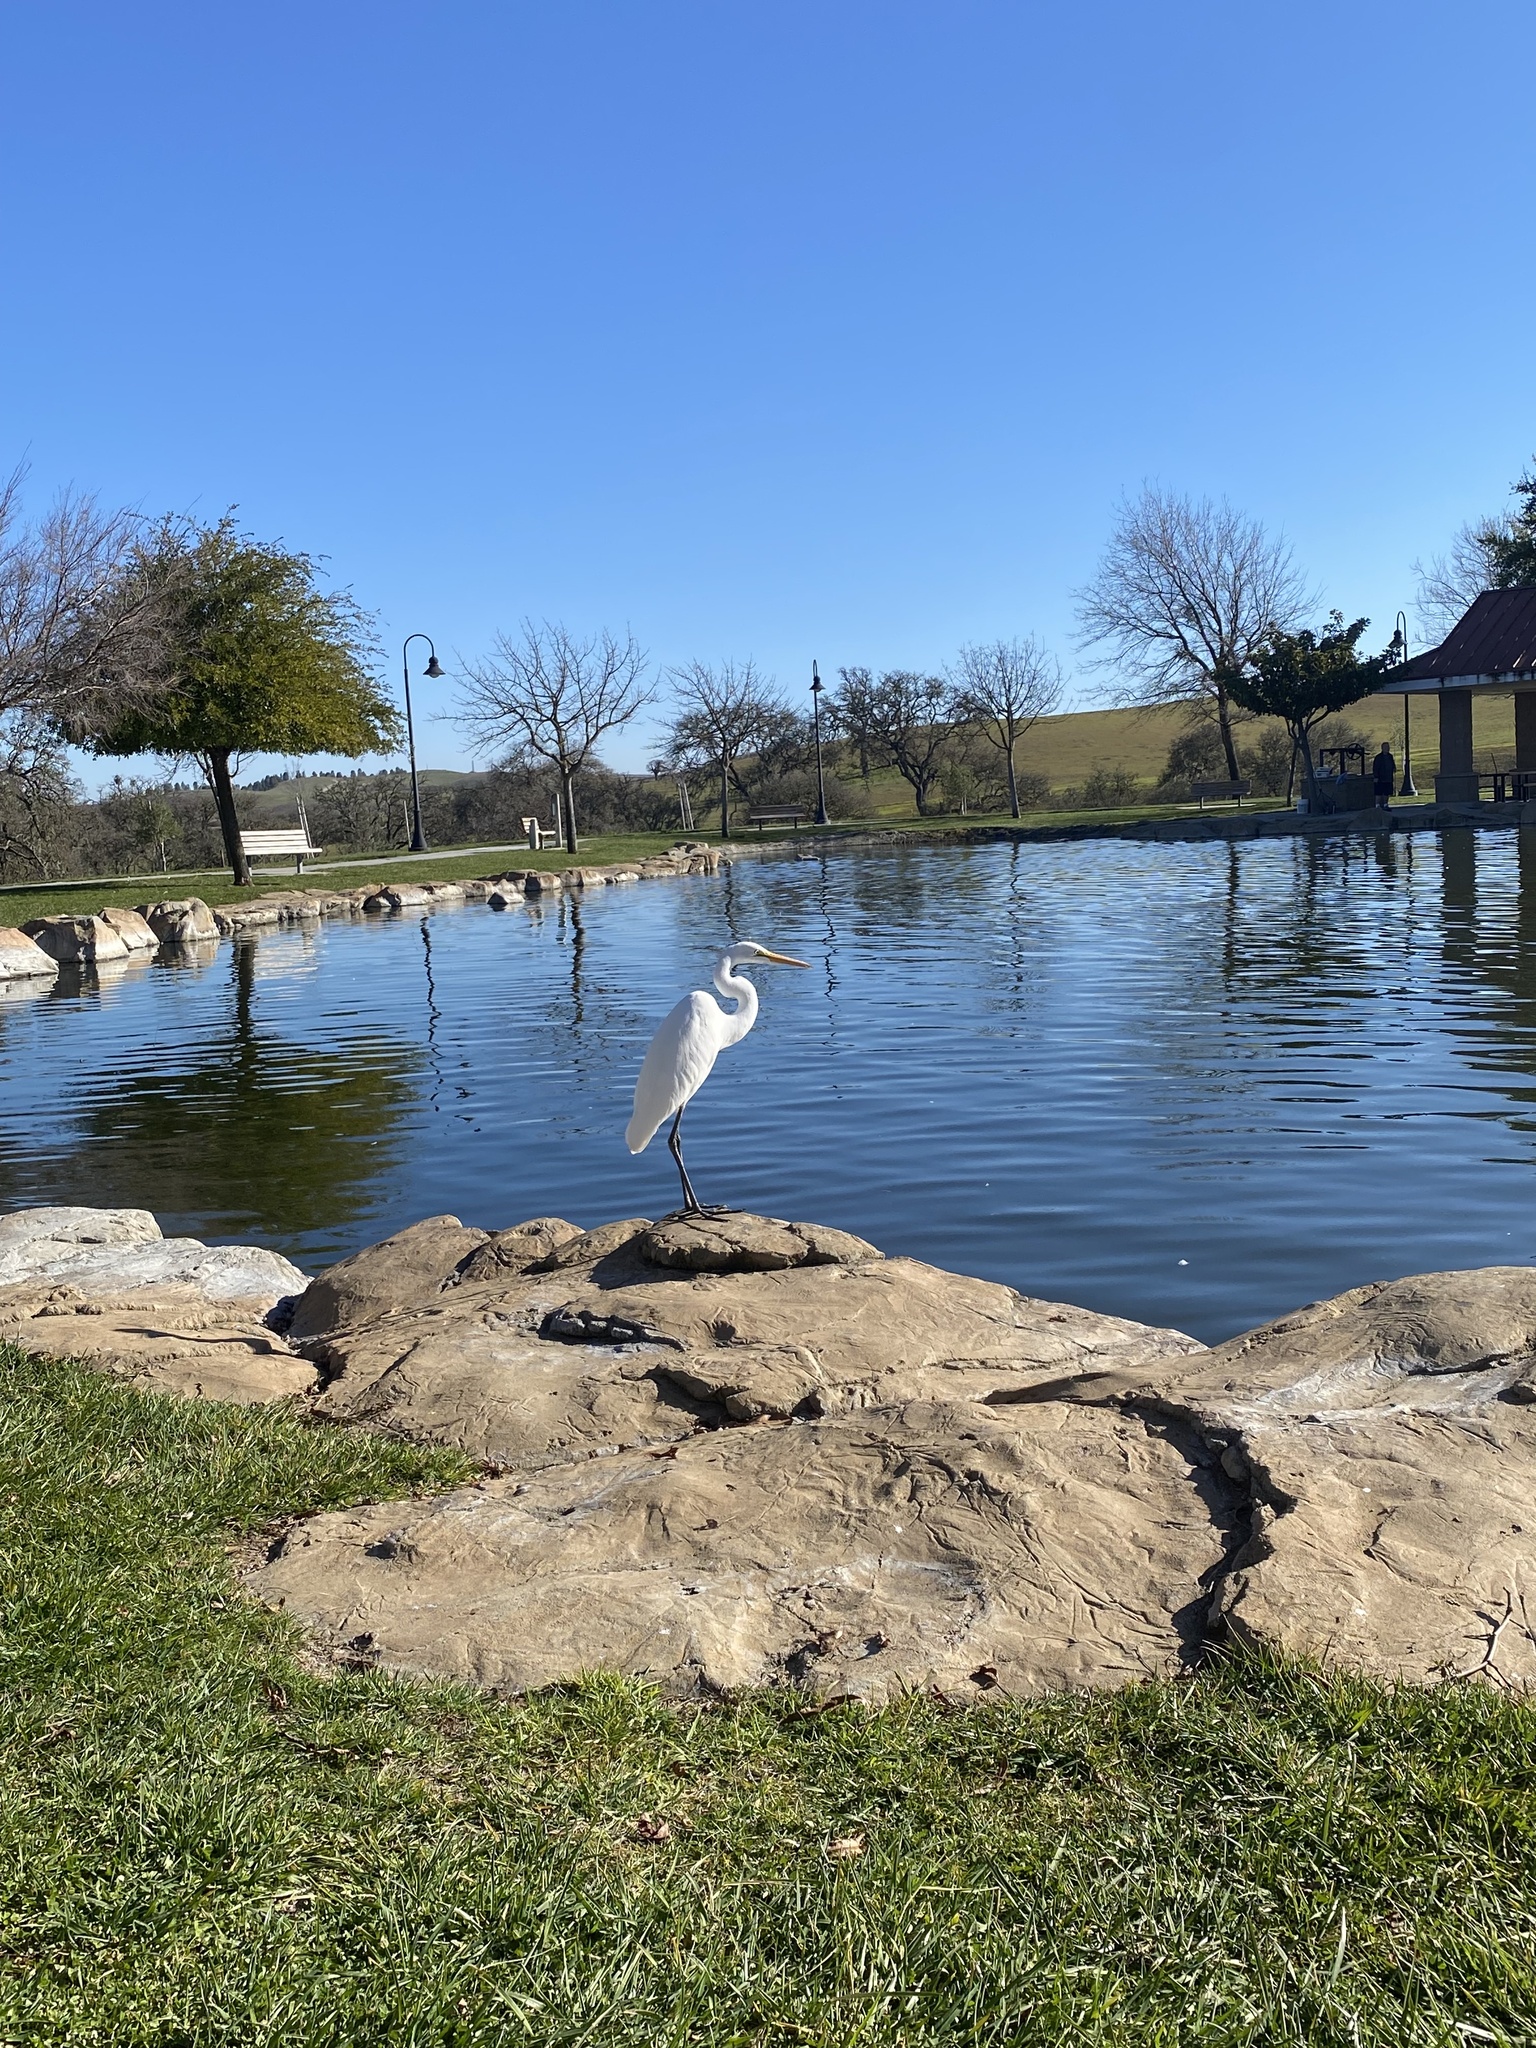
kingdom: Animalia
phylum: Chordata
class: Aves
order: Pelecaniformes
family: Ardeidae
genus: Ardea
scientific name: Ardea alba
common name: Great egret
